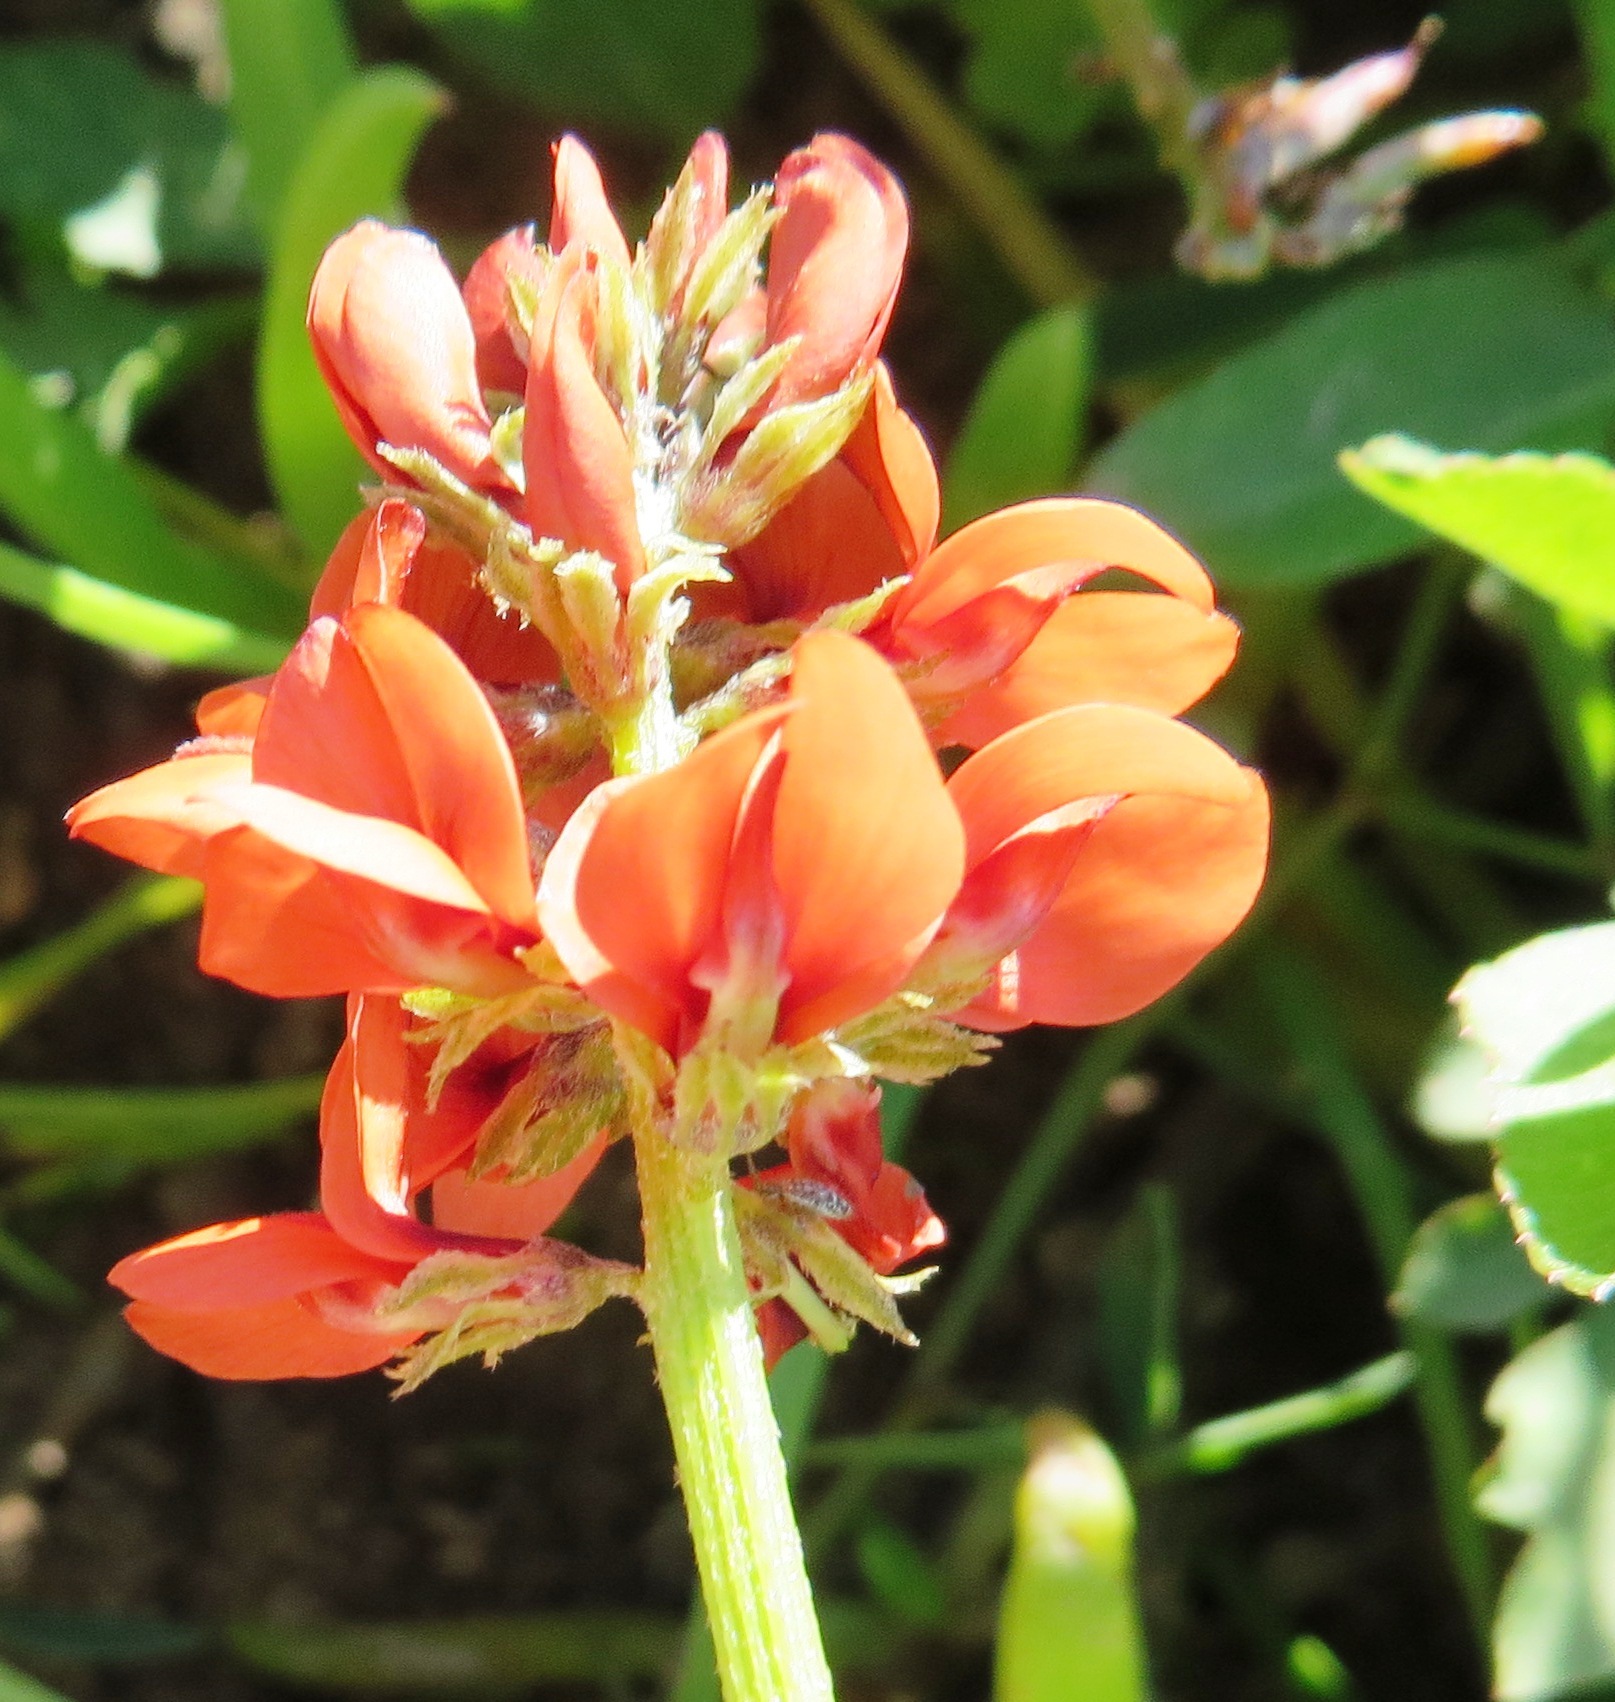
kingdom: Plantae
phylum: Tracheophyta
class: Magnoliopsida
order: Fabales
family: Fabaceae
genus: Indigofera
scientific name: Indigofera
